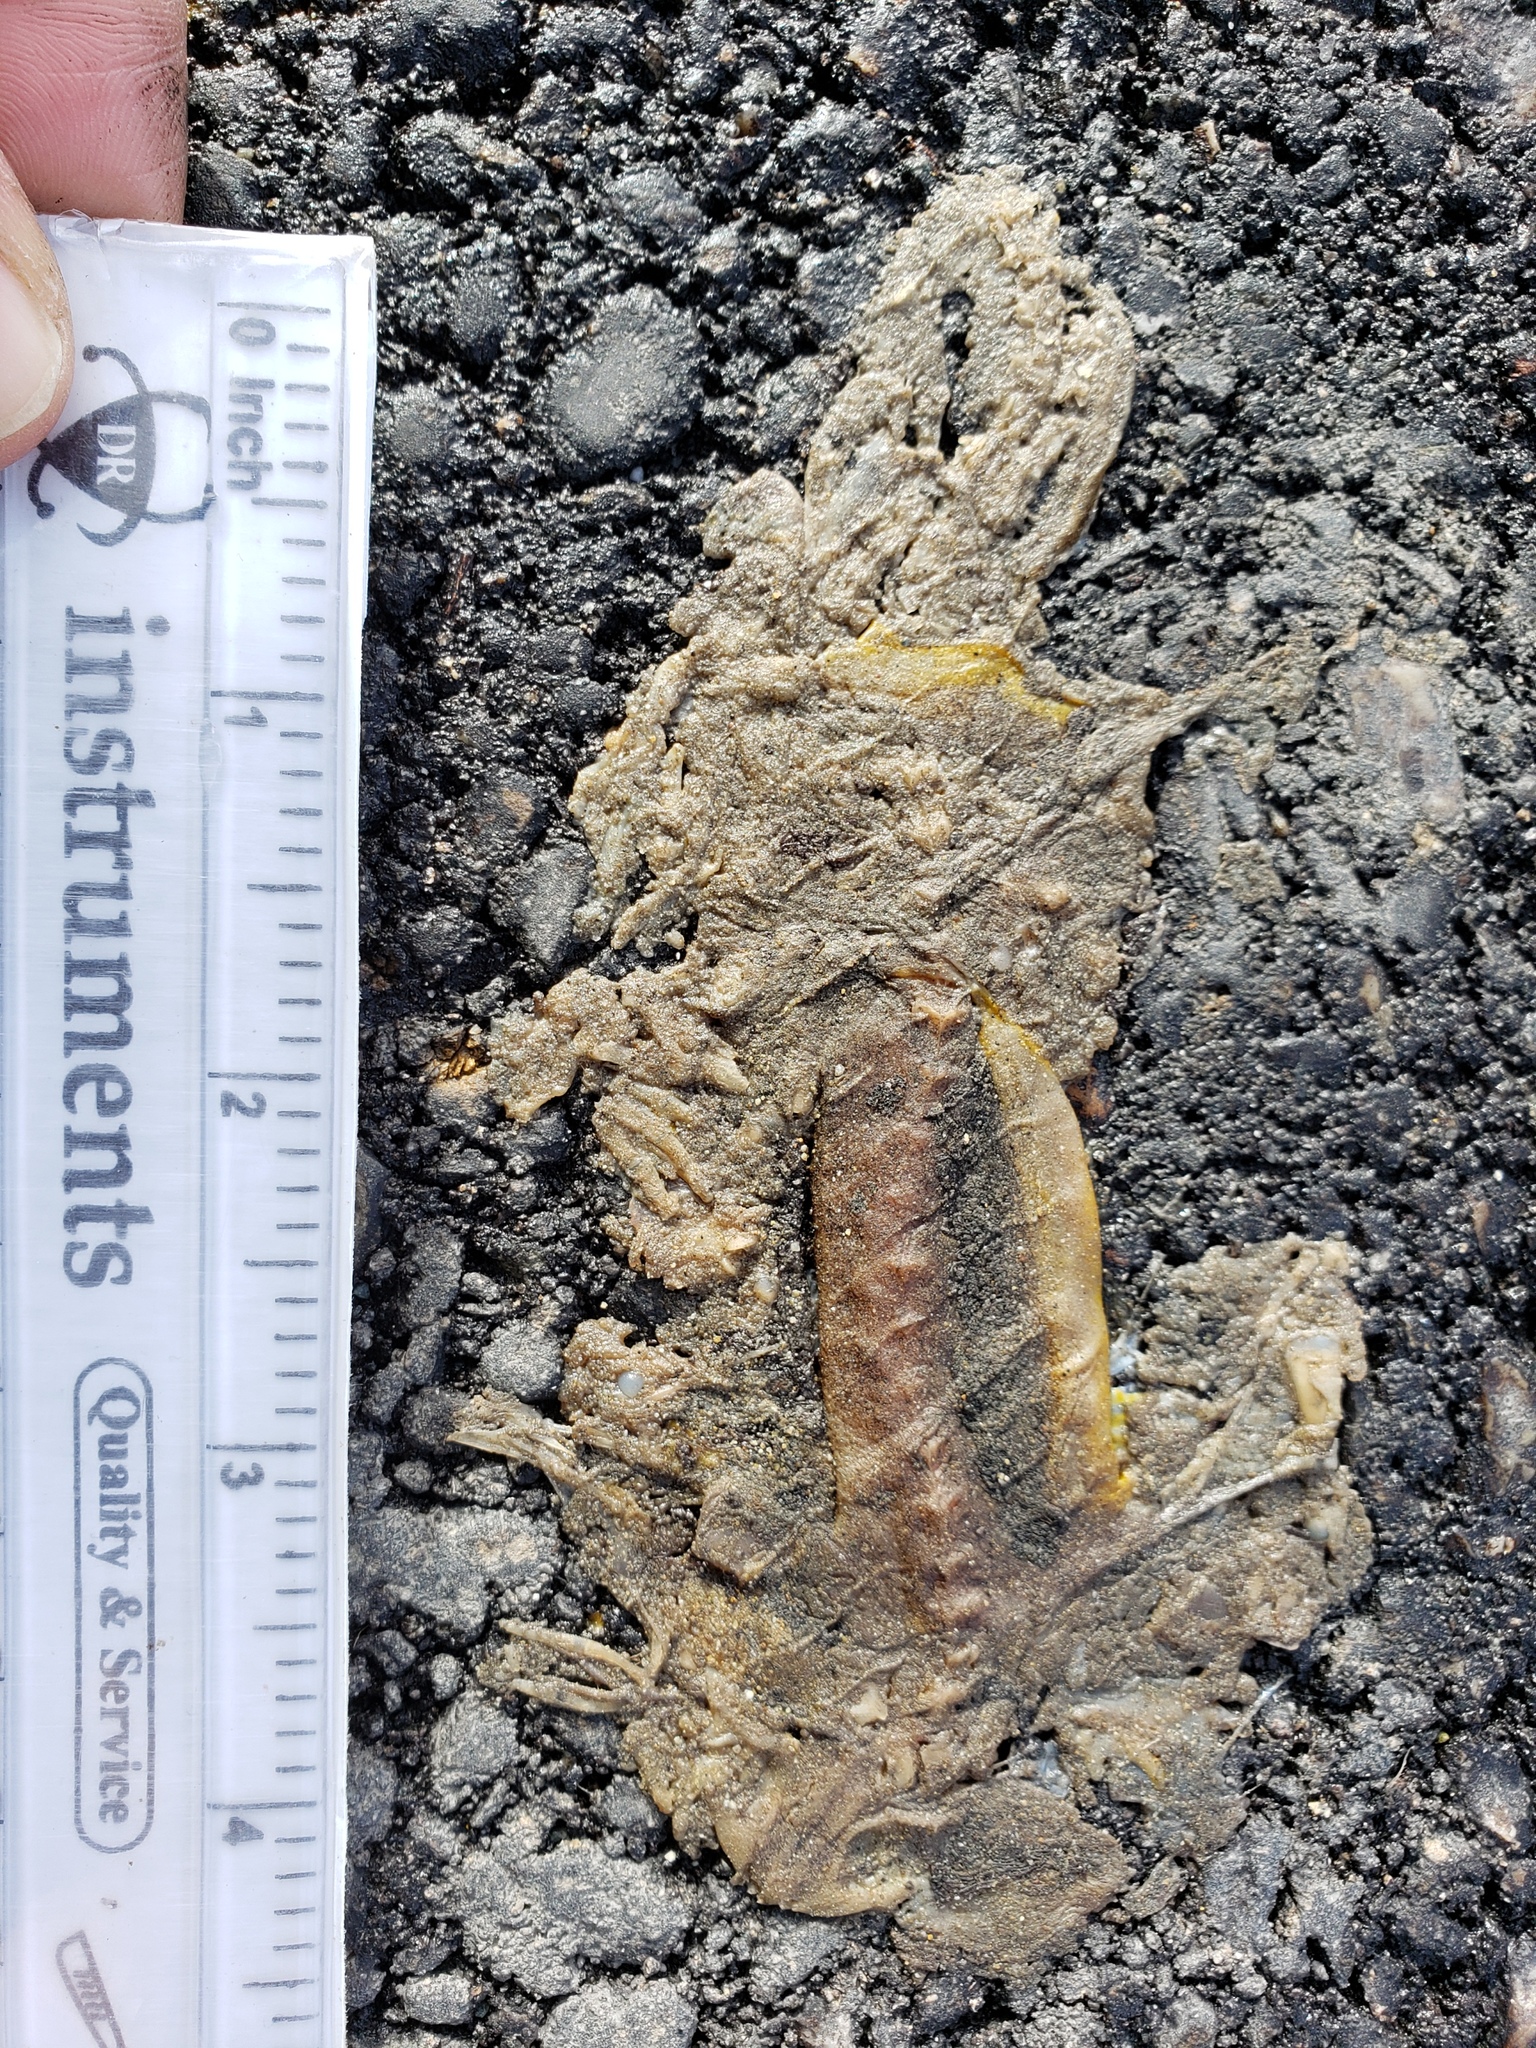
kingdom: Animalia
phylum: Chordata
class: Amphibia
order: Caudata
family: Salamandridae
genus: Taricha
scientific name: Taricha
